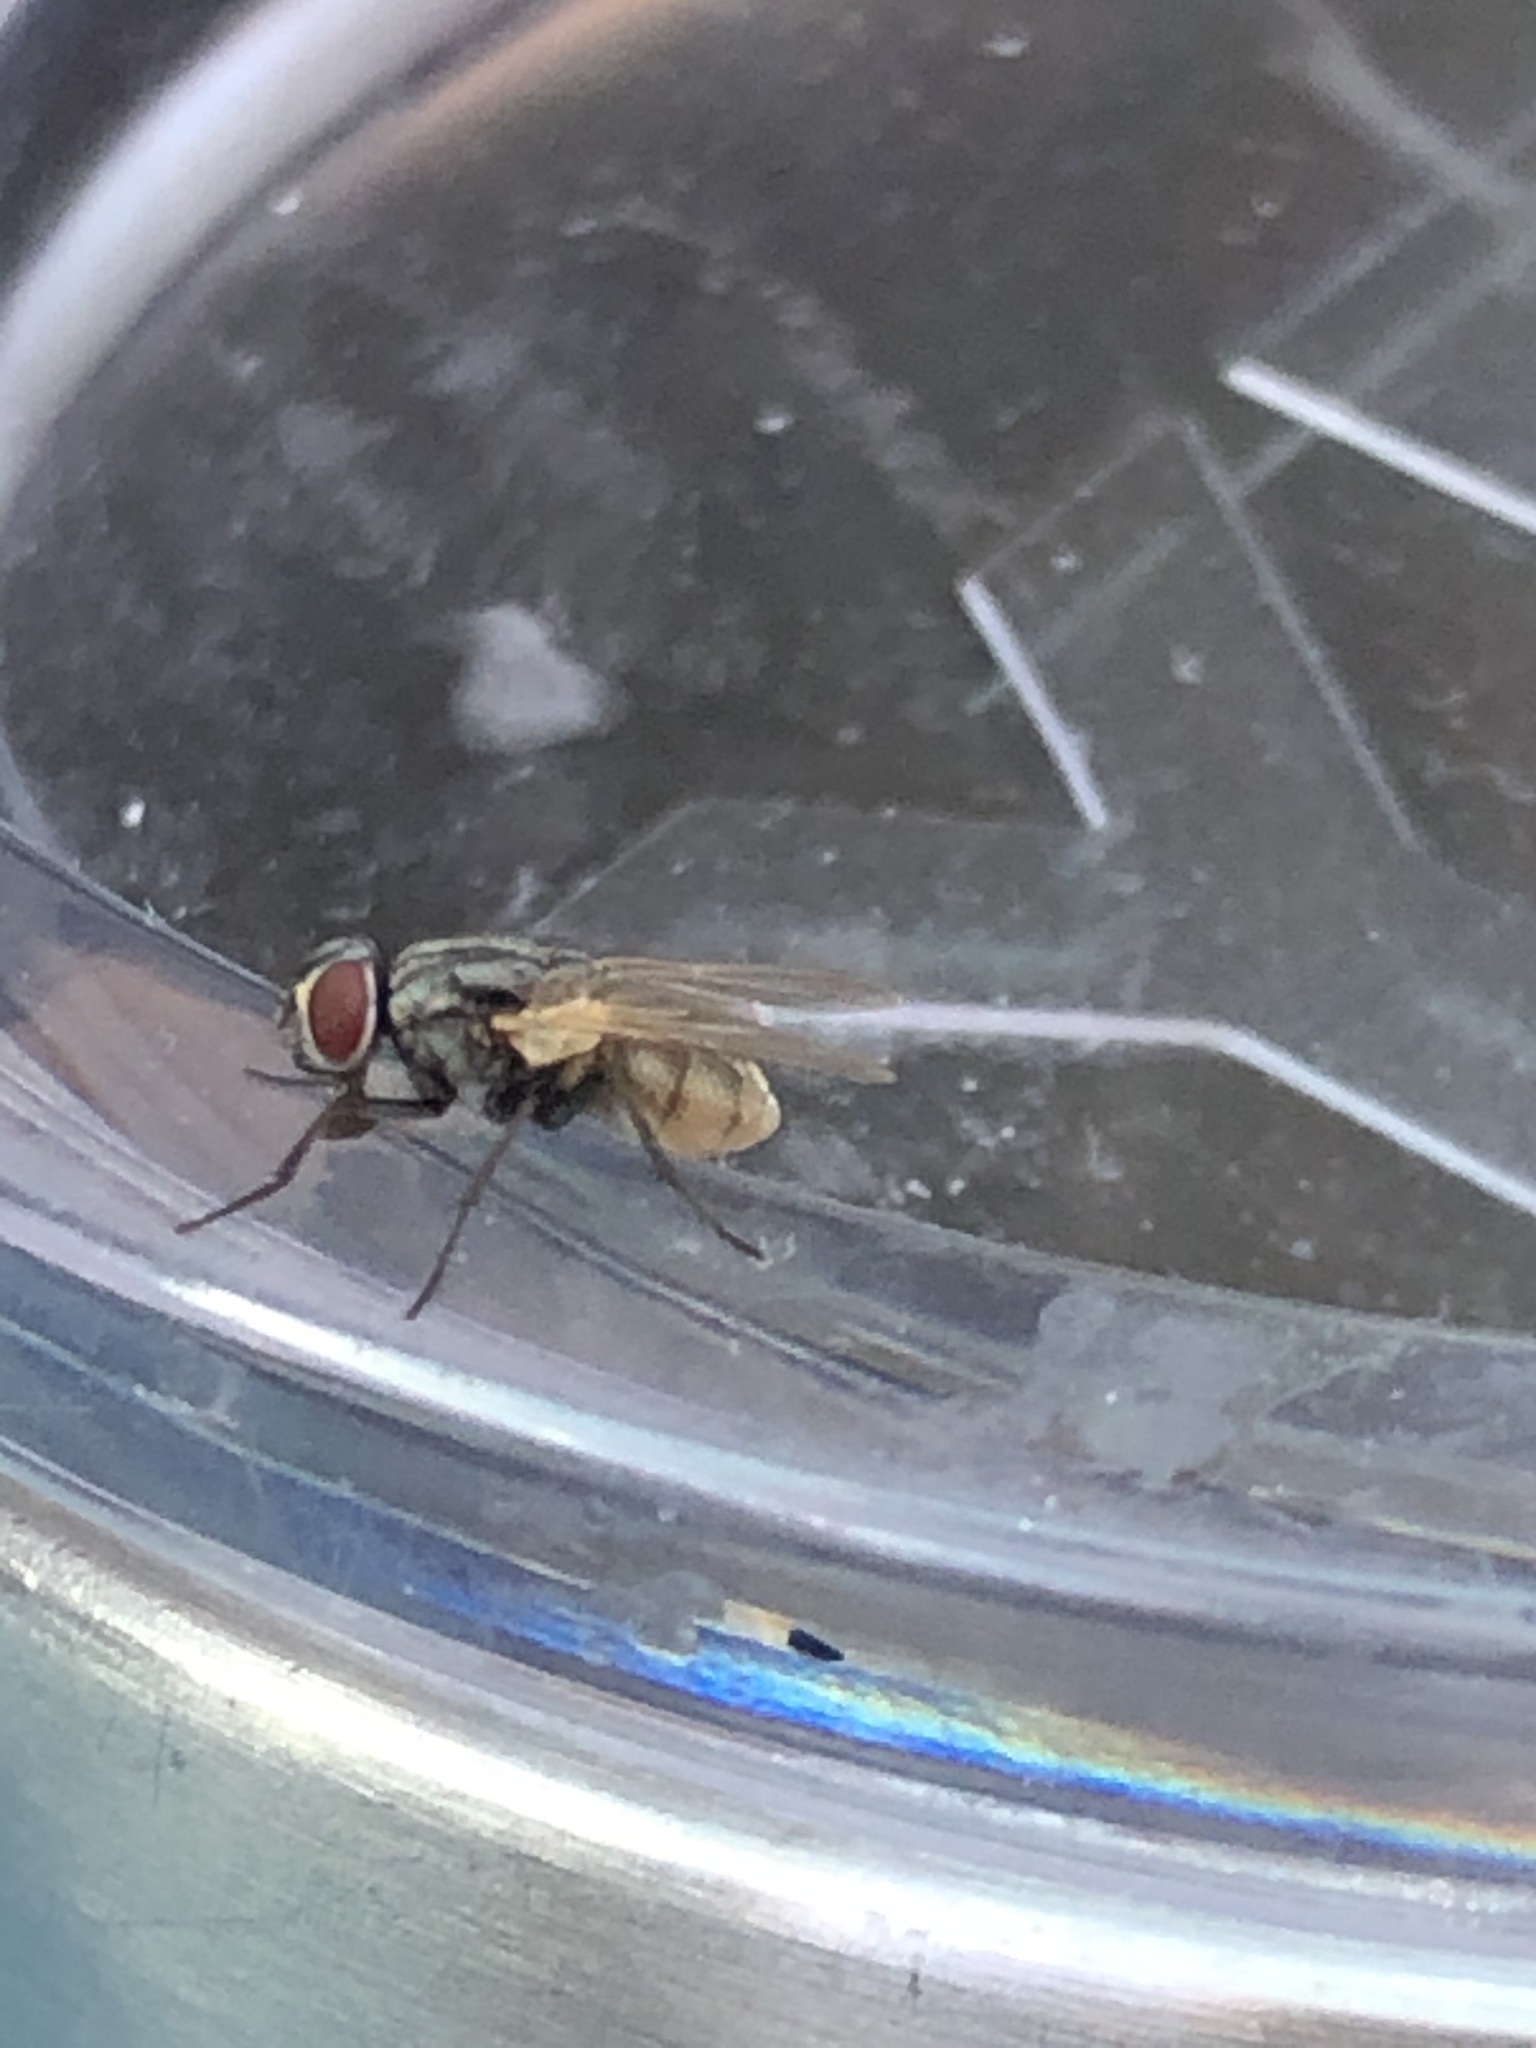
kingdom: Animalia
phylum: Arthropoda
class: Insecta
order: Diptera
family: Muscidae
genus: Musca
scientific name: Musca domestica
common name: House fly
